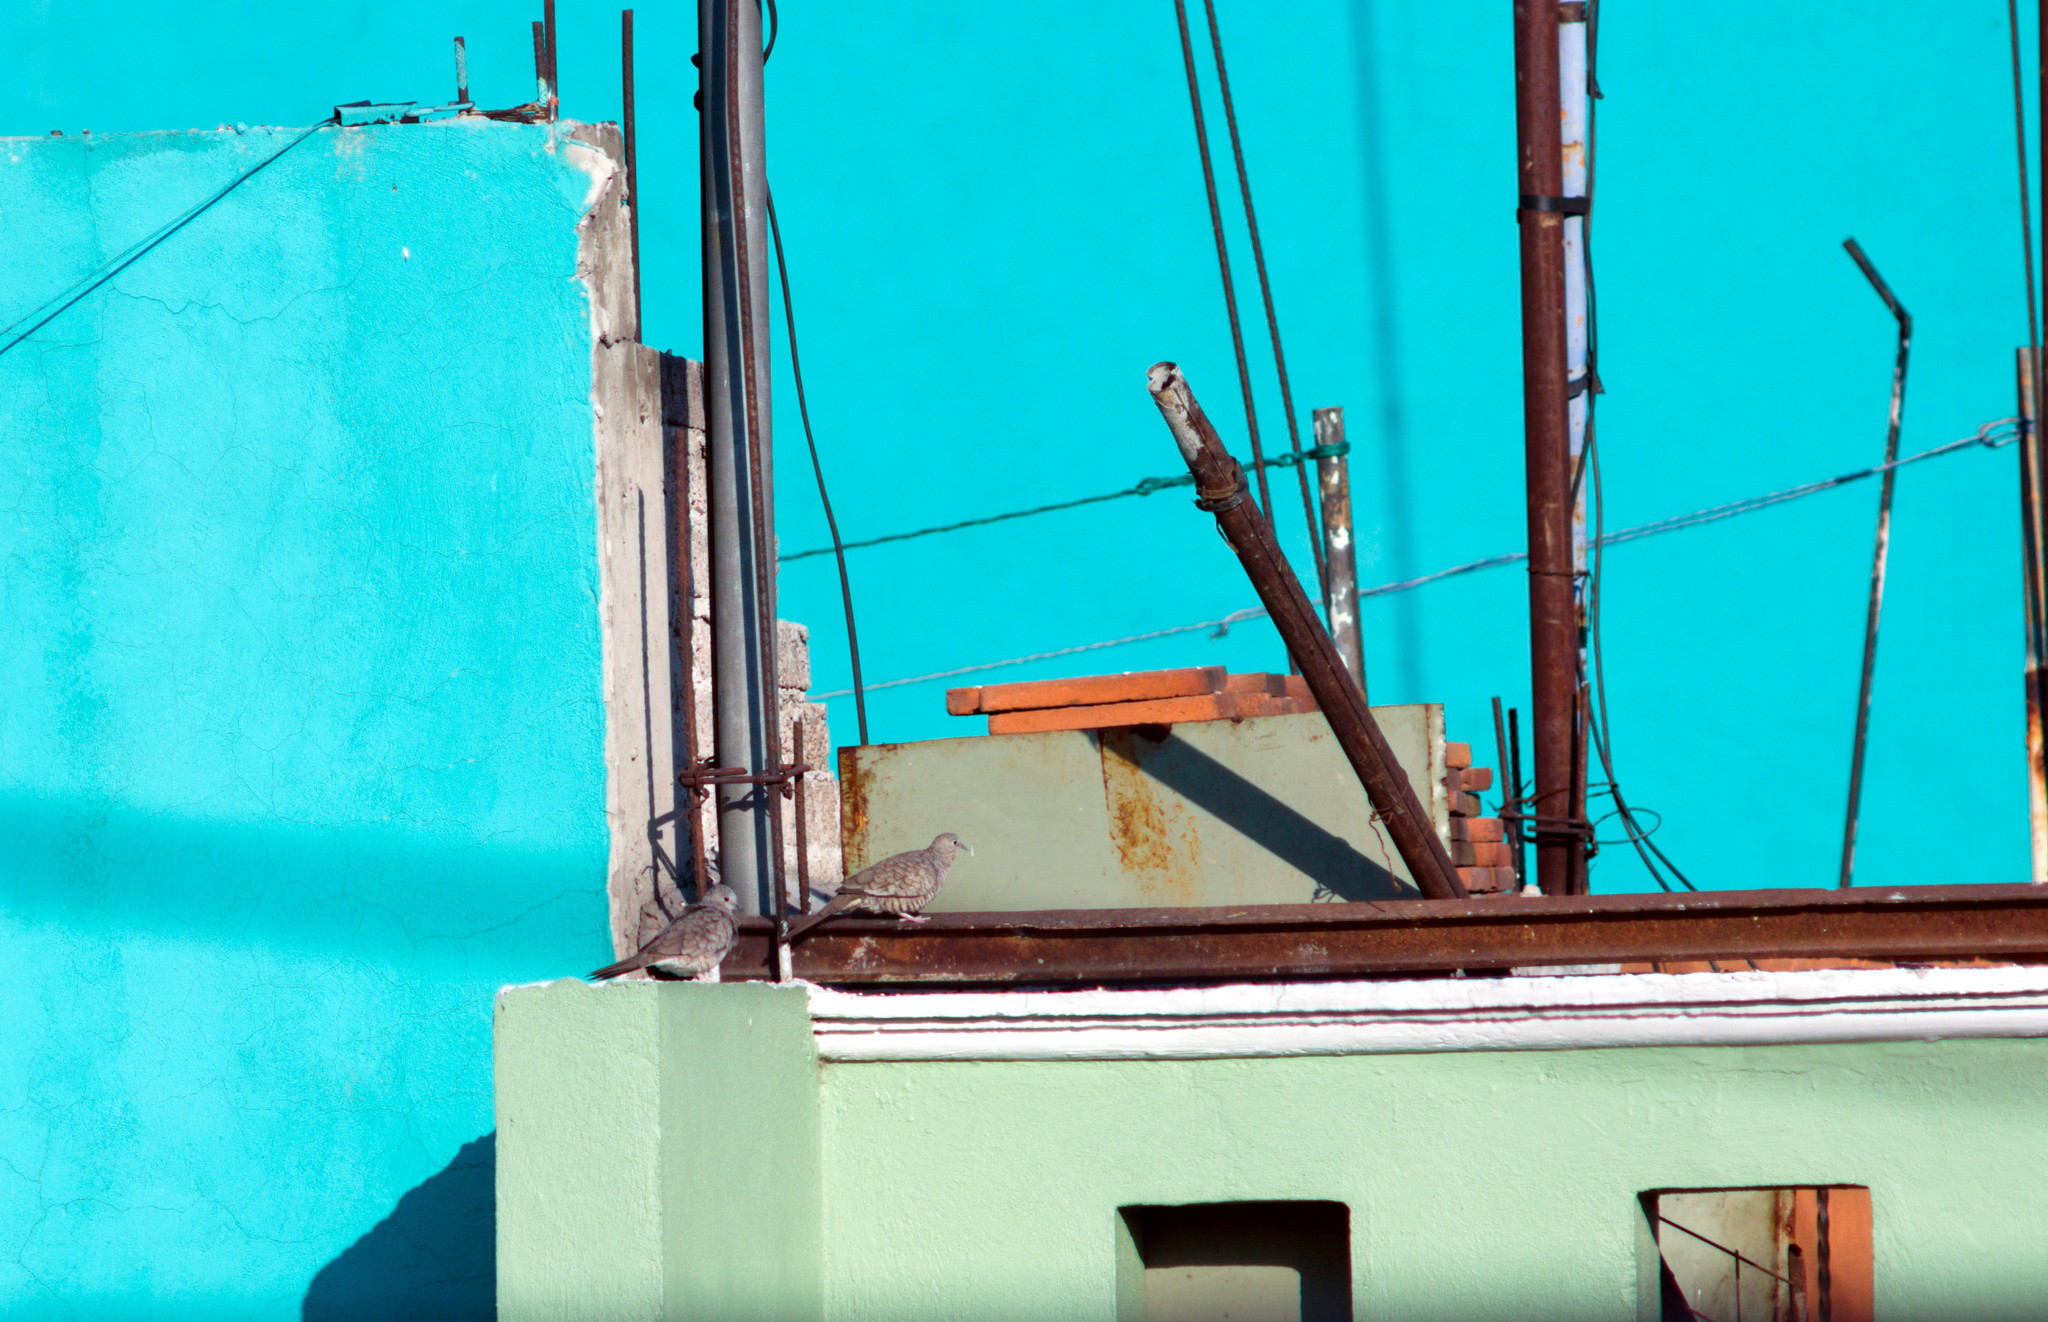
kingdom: Animalia
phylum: Chordata
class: Aves
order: Columbiformes
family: Columbidae
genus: Columbina
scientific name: Columbina inca
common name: Inca dove
